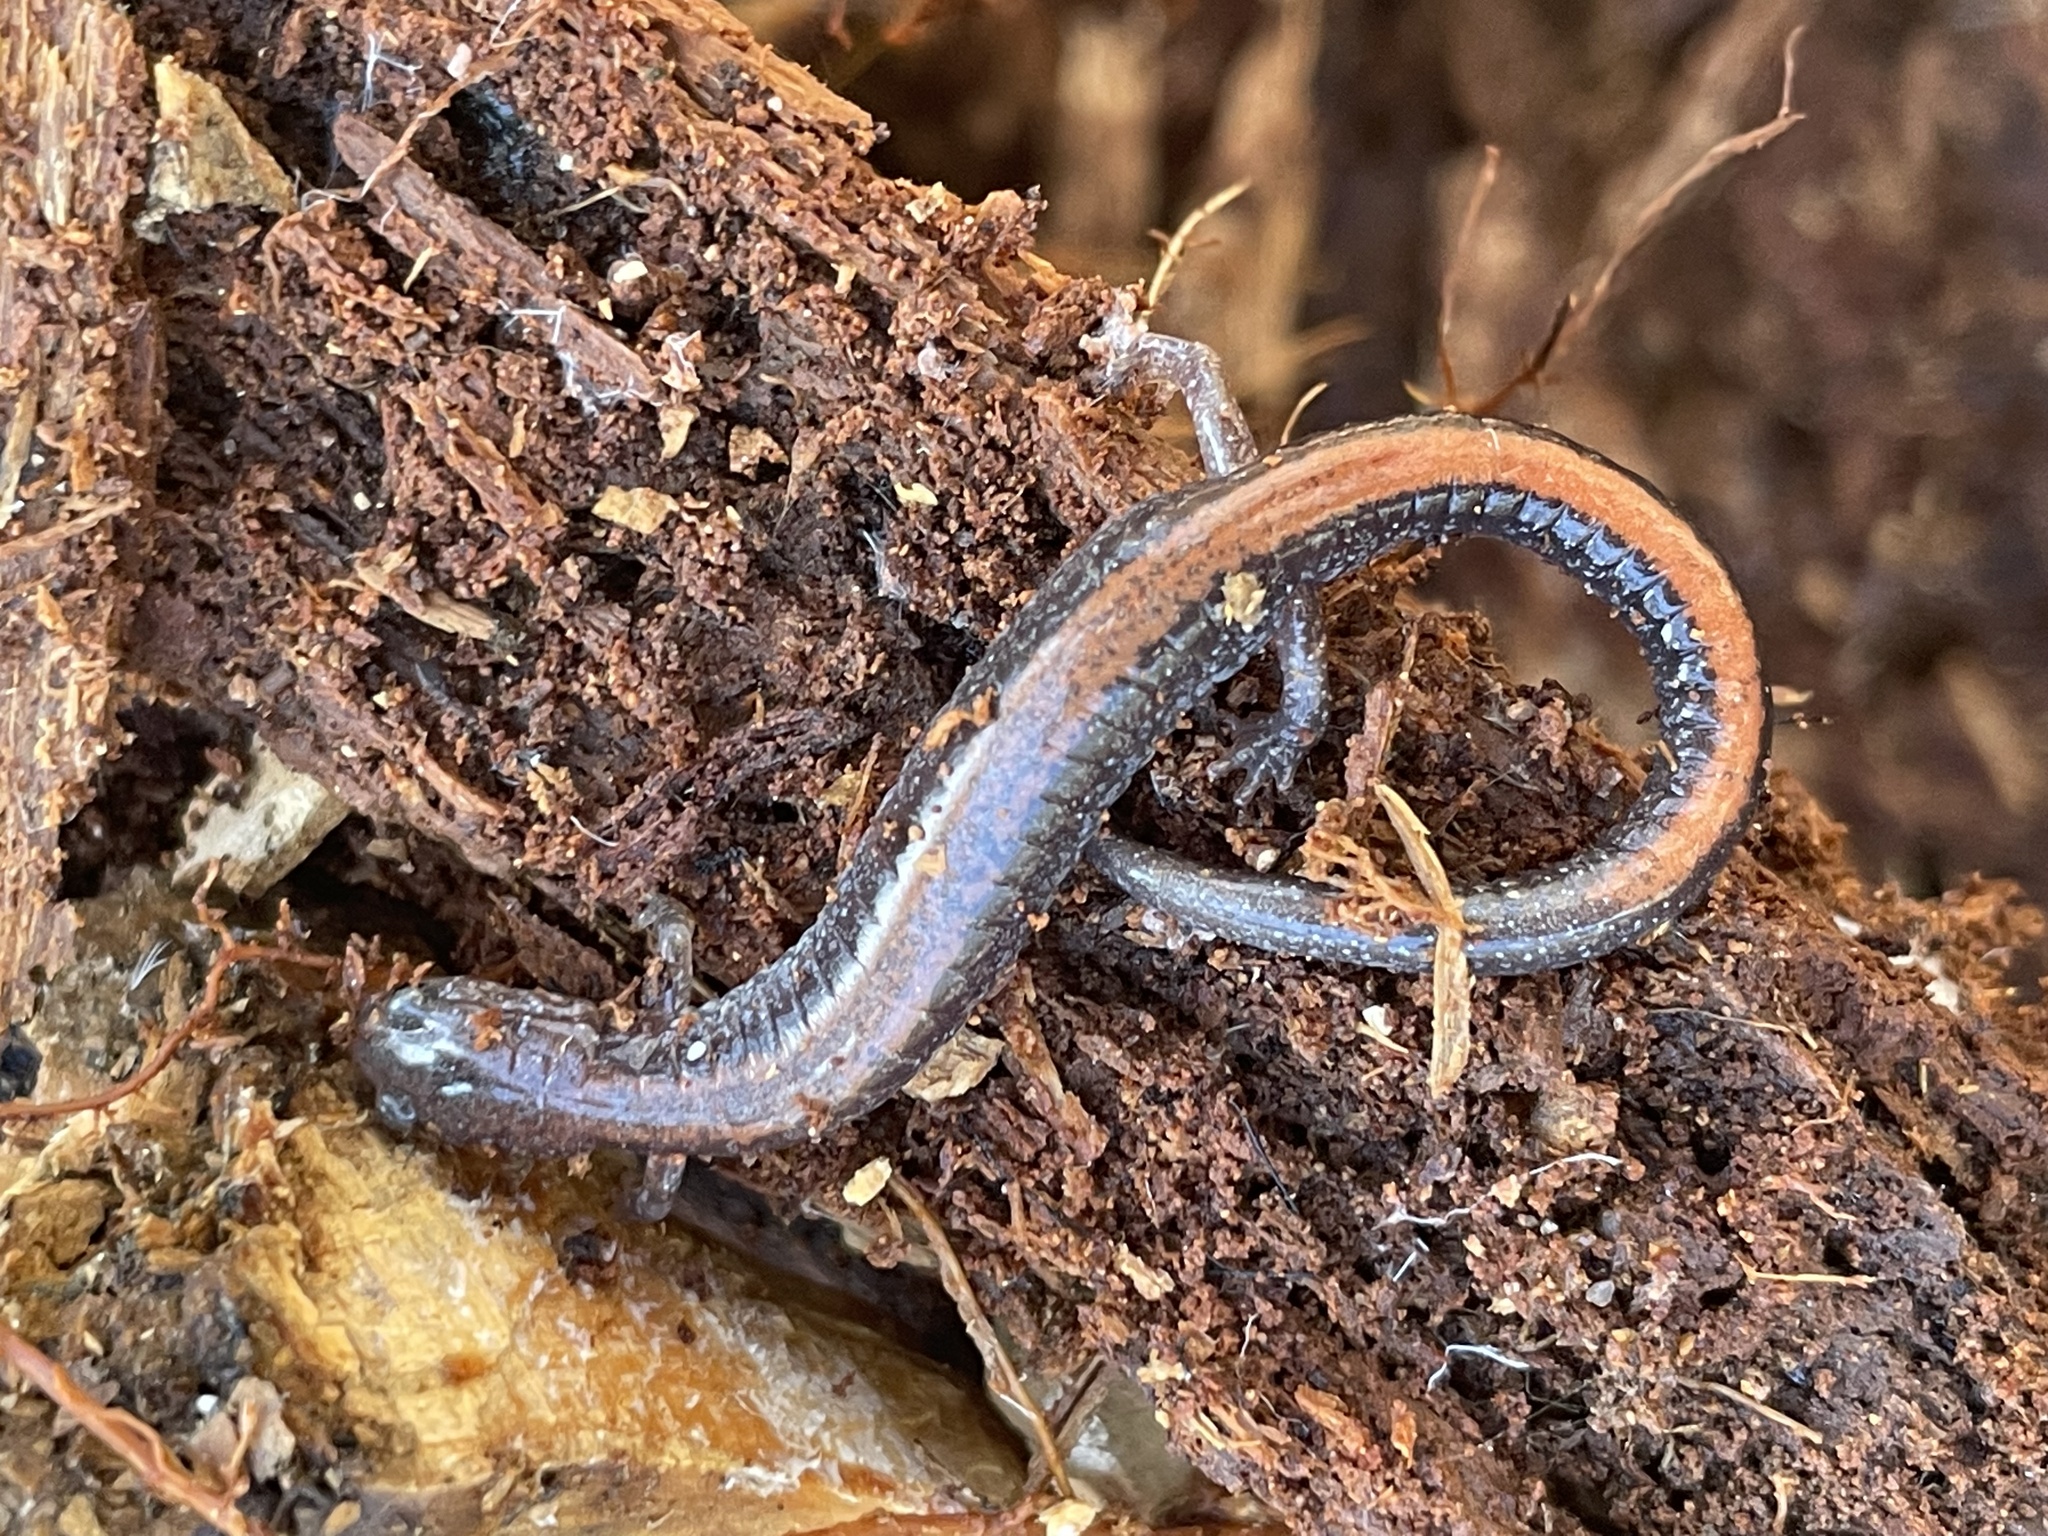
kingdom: Animalia
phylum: Chordata
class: Amphibia
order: Caudata
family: Plethodontidae
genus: Plethodon
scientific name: Plethodon cinereus
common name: Redback salamander
